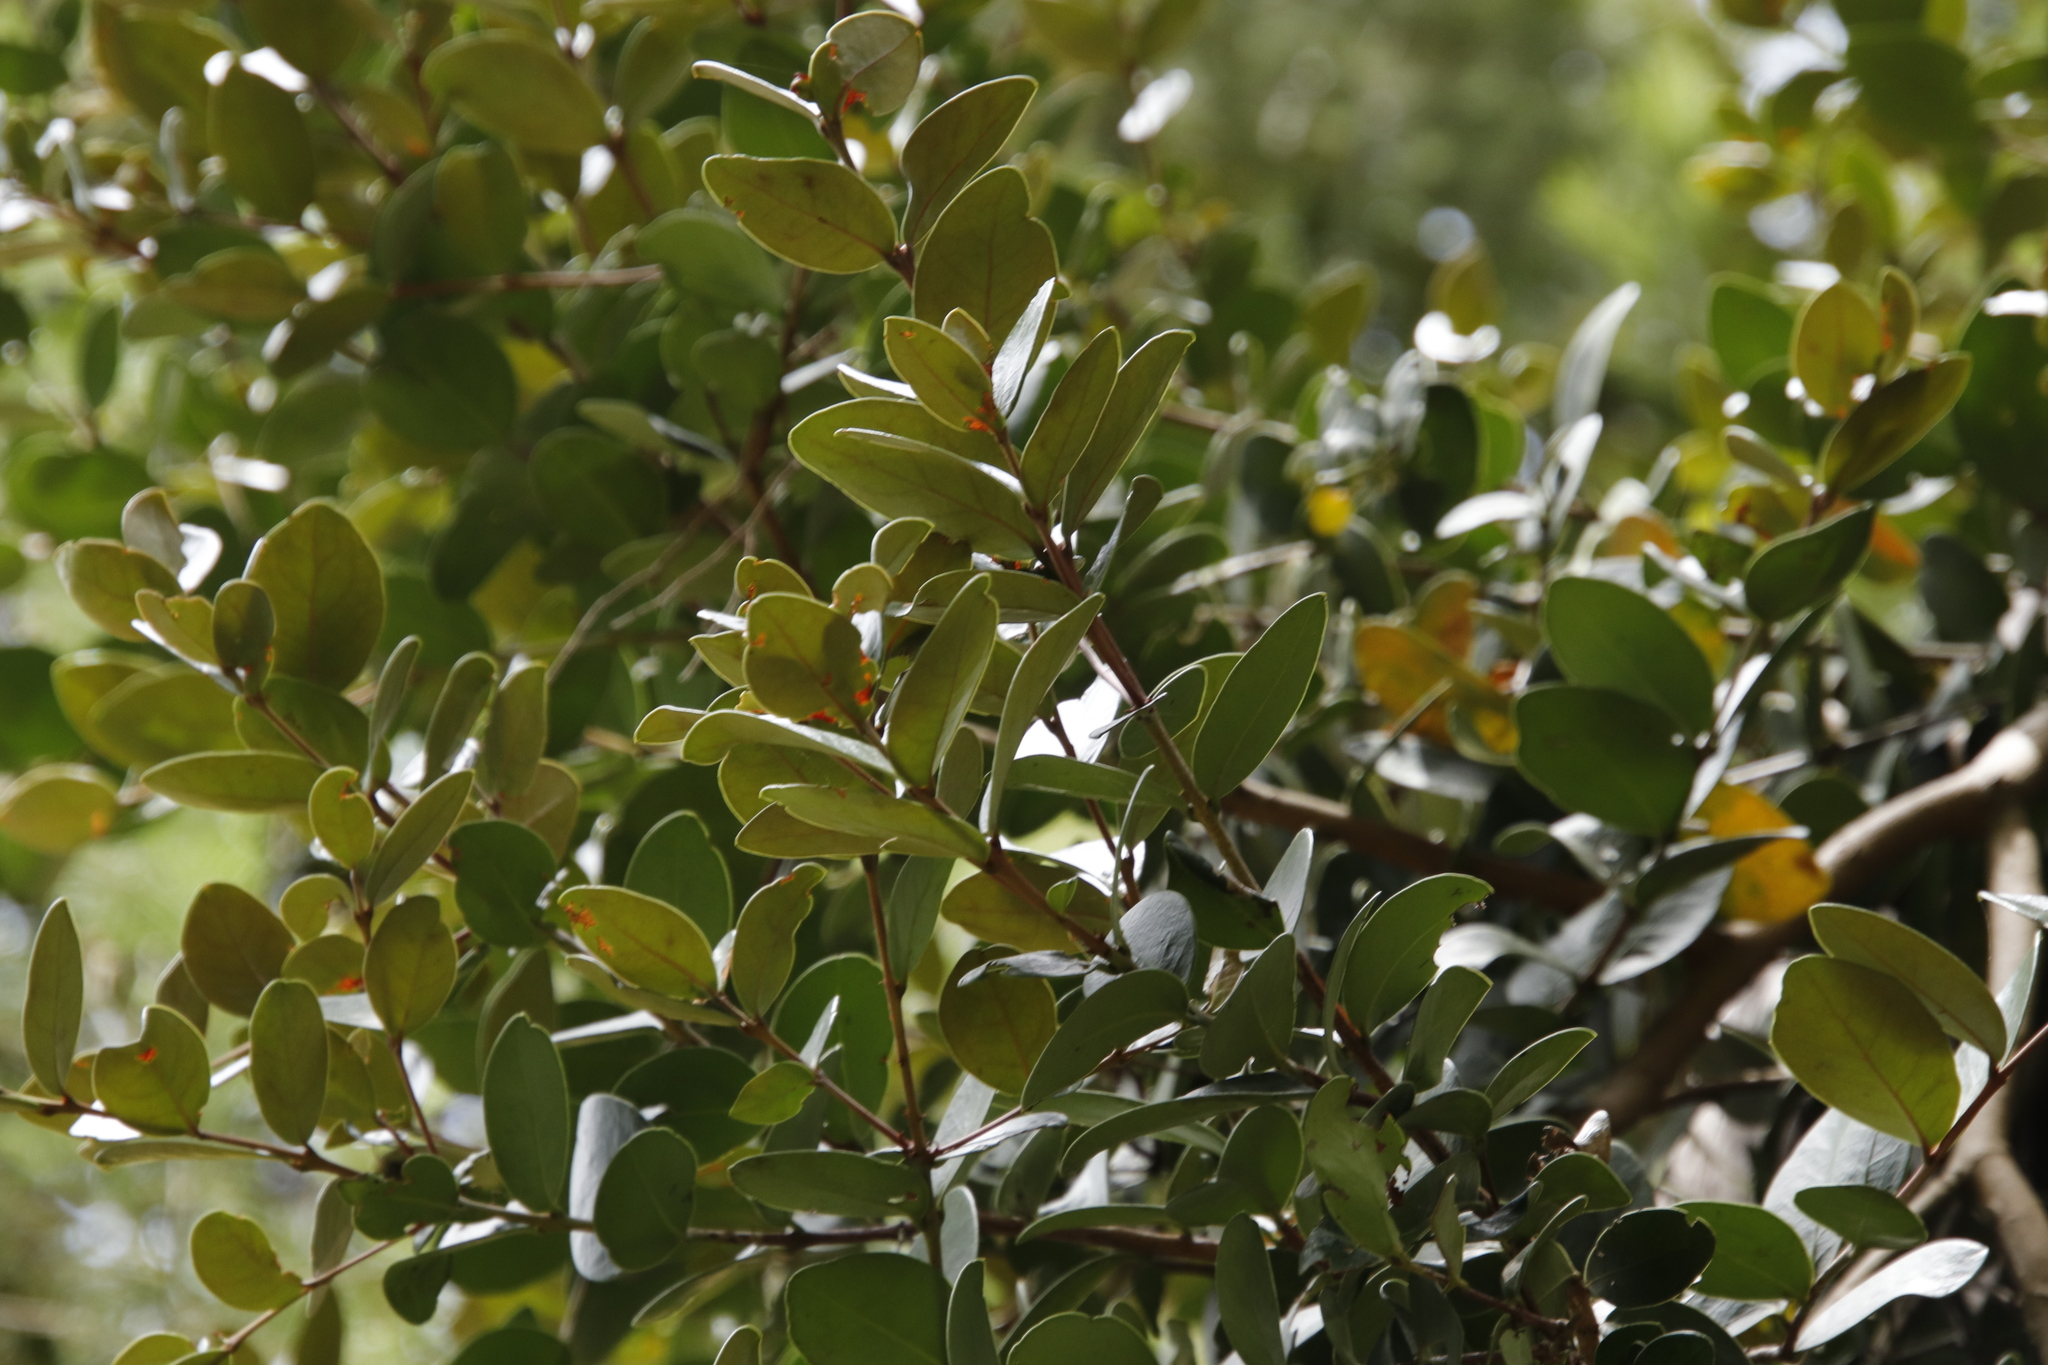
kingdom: Plantae
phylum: Tracheophyta
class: Magnoliopsida
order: Celastrales
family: Celastraceae
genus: Maurocenia
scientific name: Maurocenia frangula
